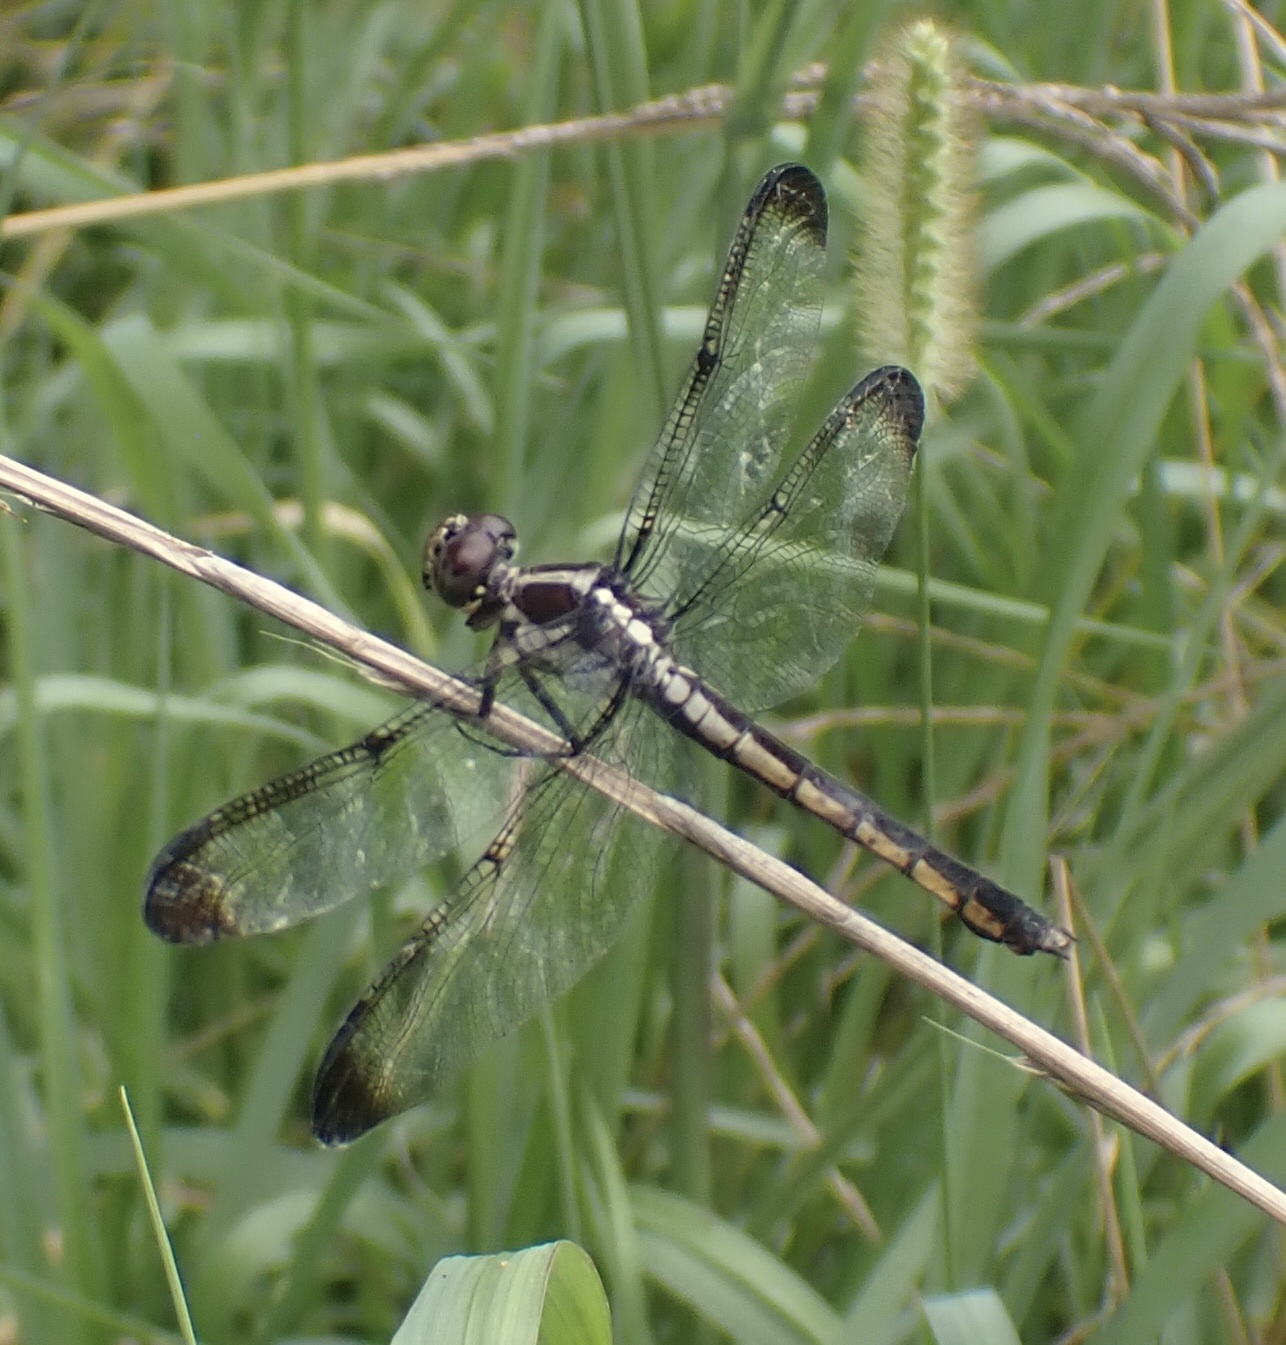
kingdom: Animalia
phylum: Arthropoda
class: Insecta
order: Odonata
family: Libellulidae
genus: Libellula
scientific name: Libellula incesta
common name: Slaty skimmer
